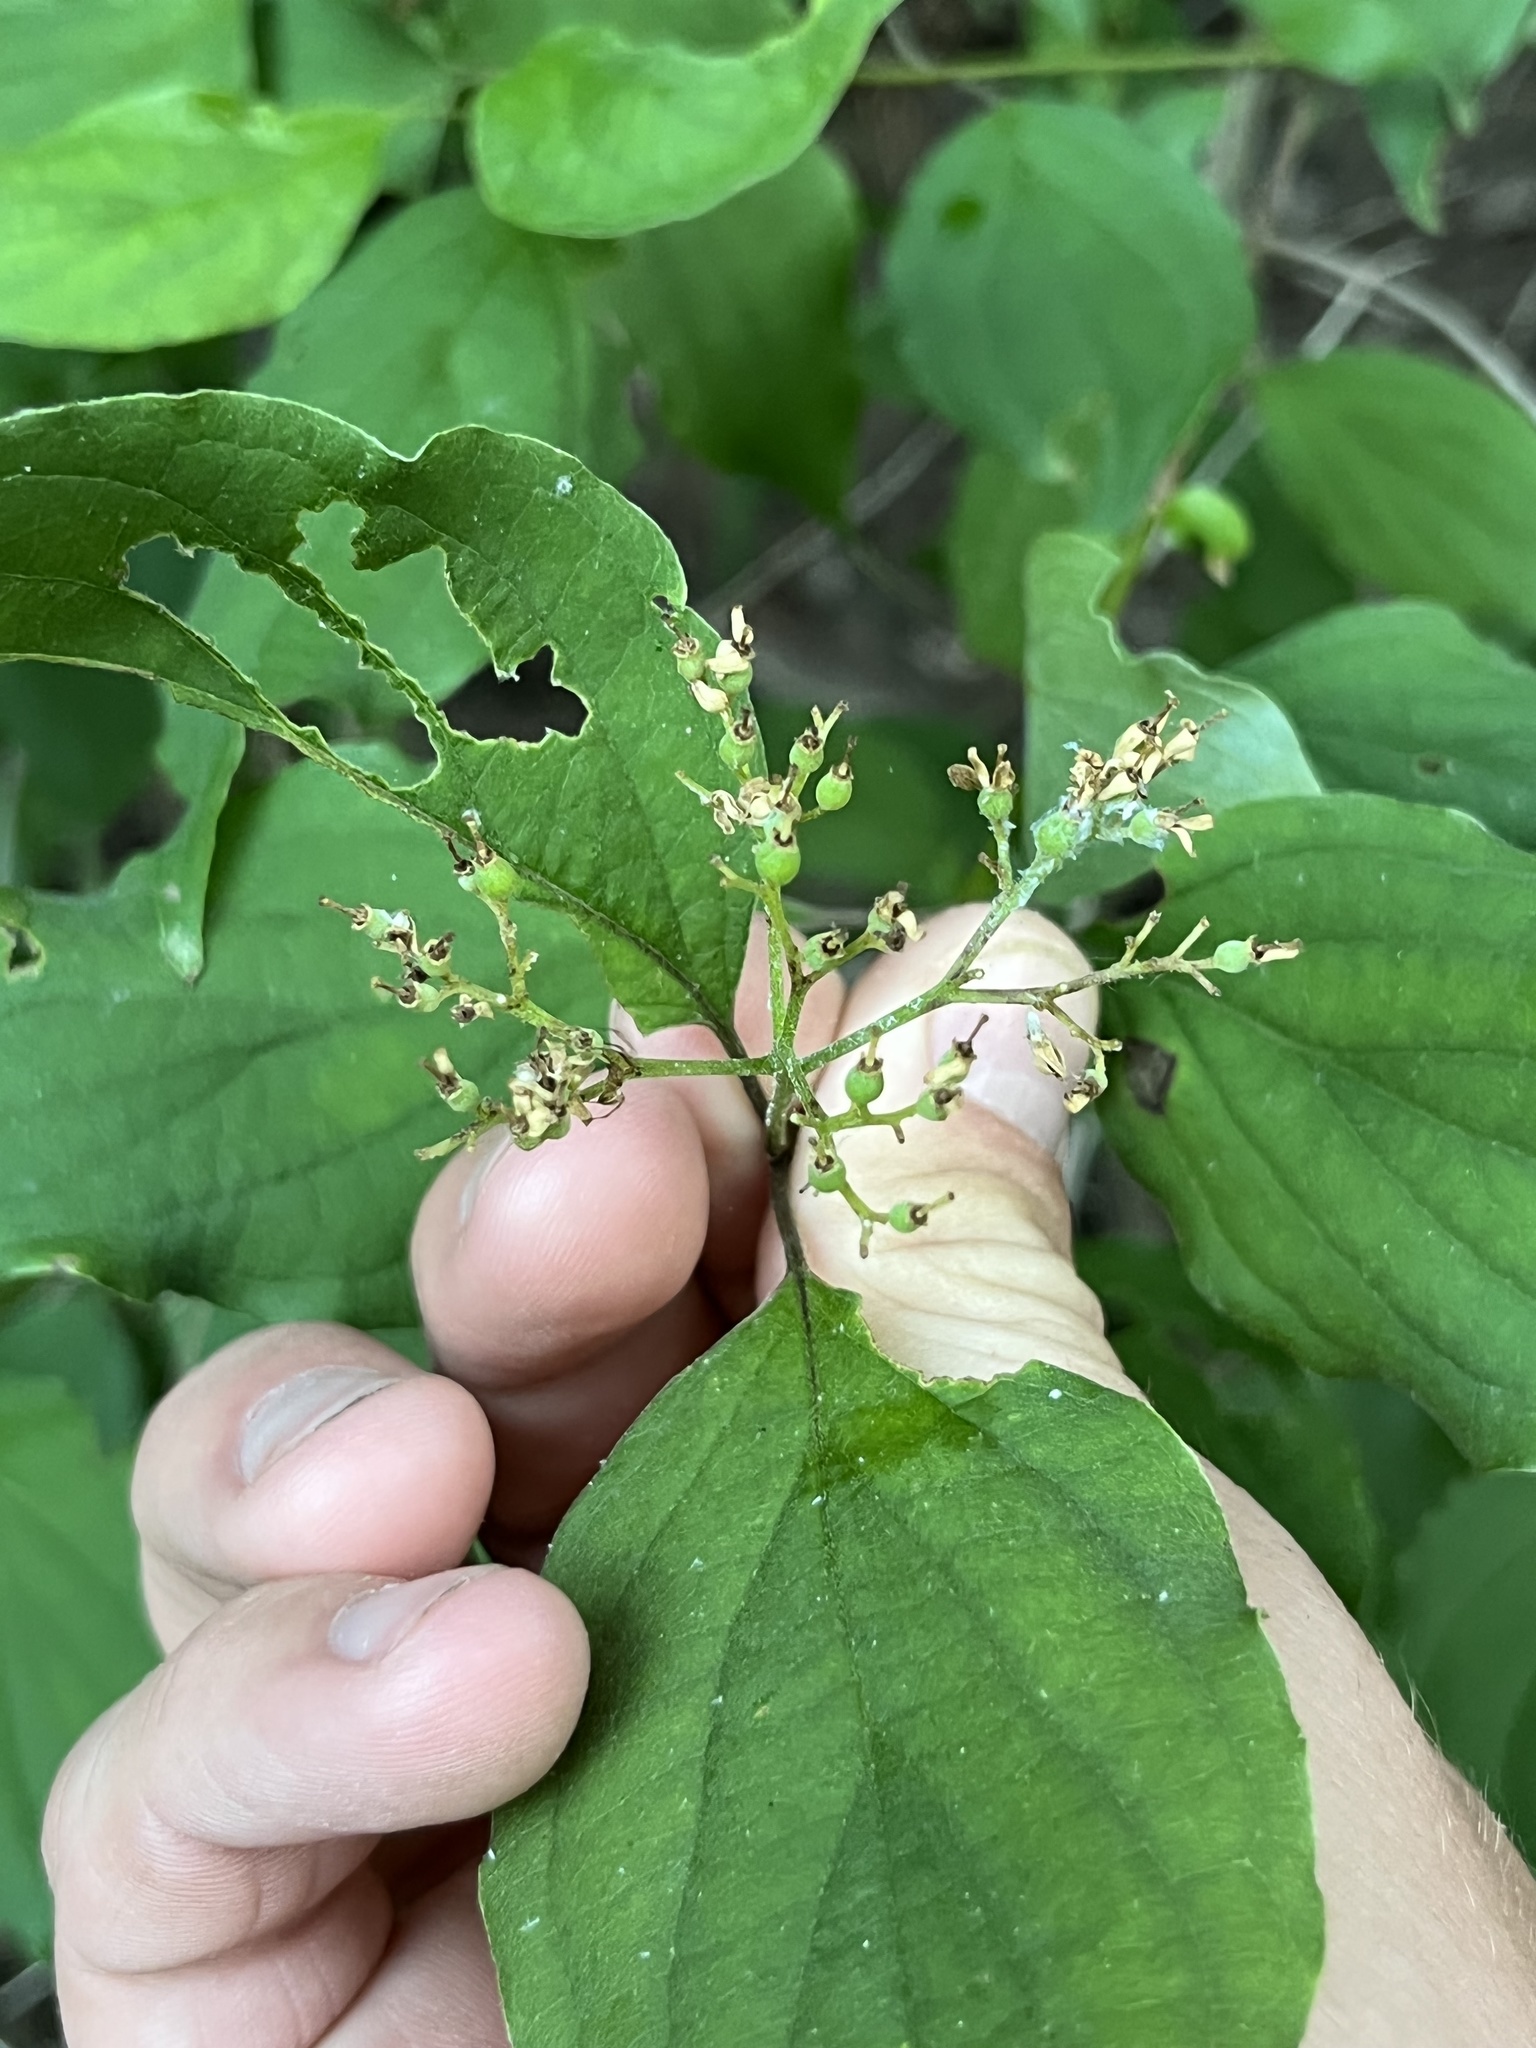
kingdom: Plantae
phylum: Tracheophyta
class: Magnoliopsida
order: Cornales
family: Cornaceae
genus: Cornus
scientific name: Cornus drummondii
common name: Rough-leaf dogwood
